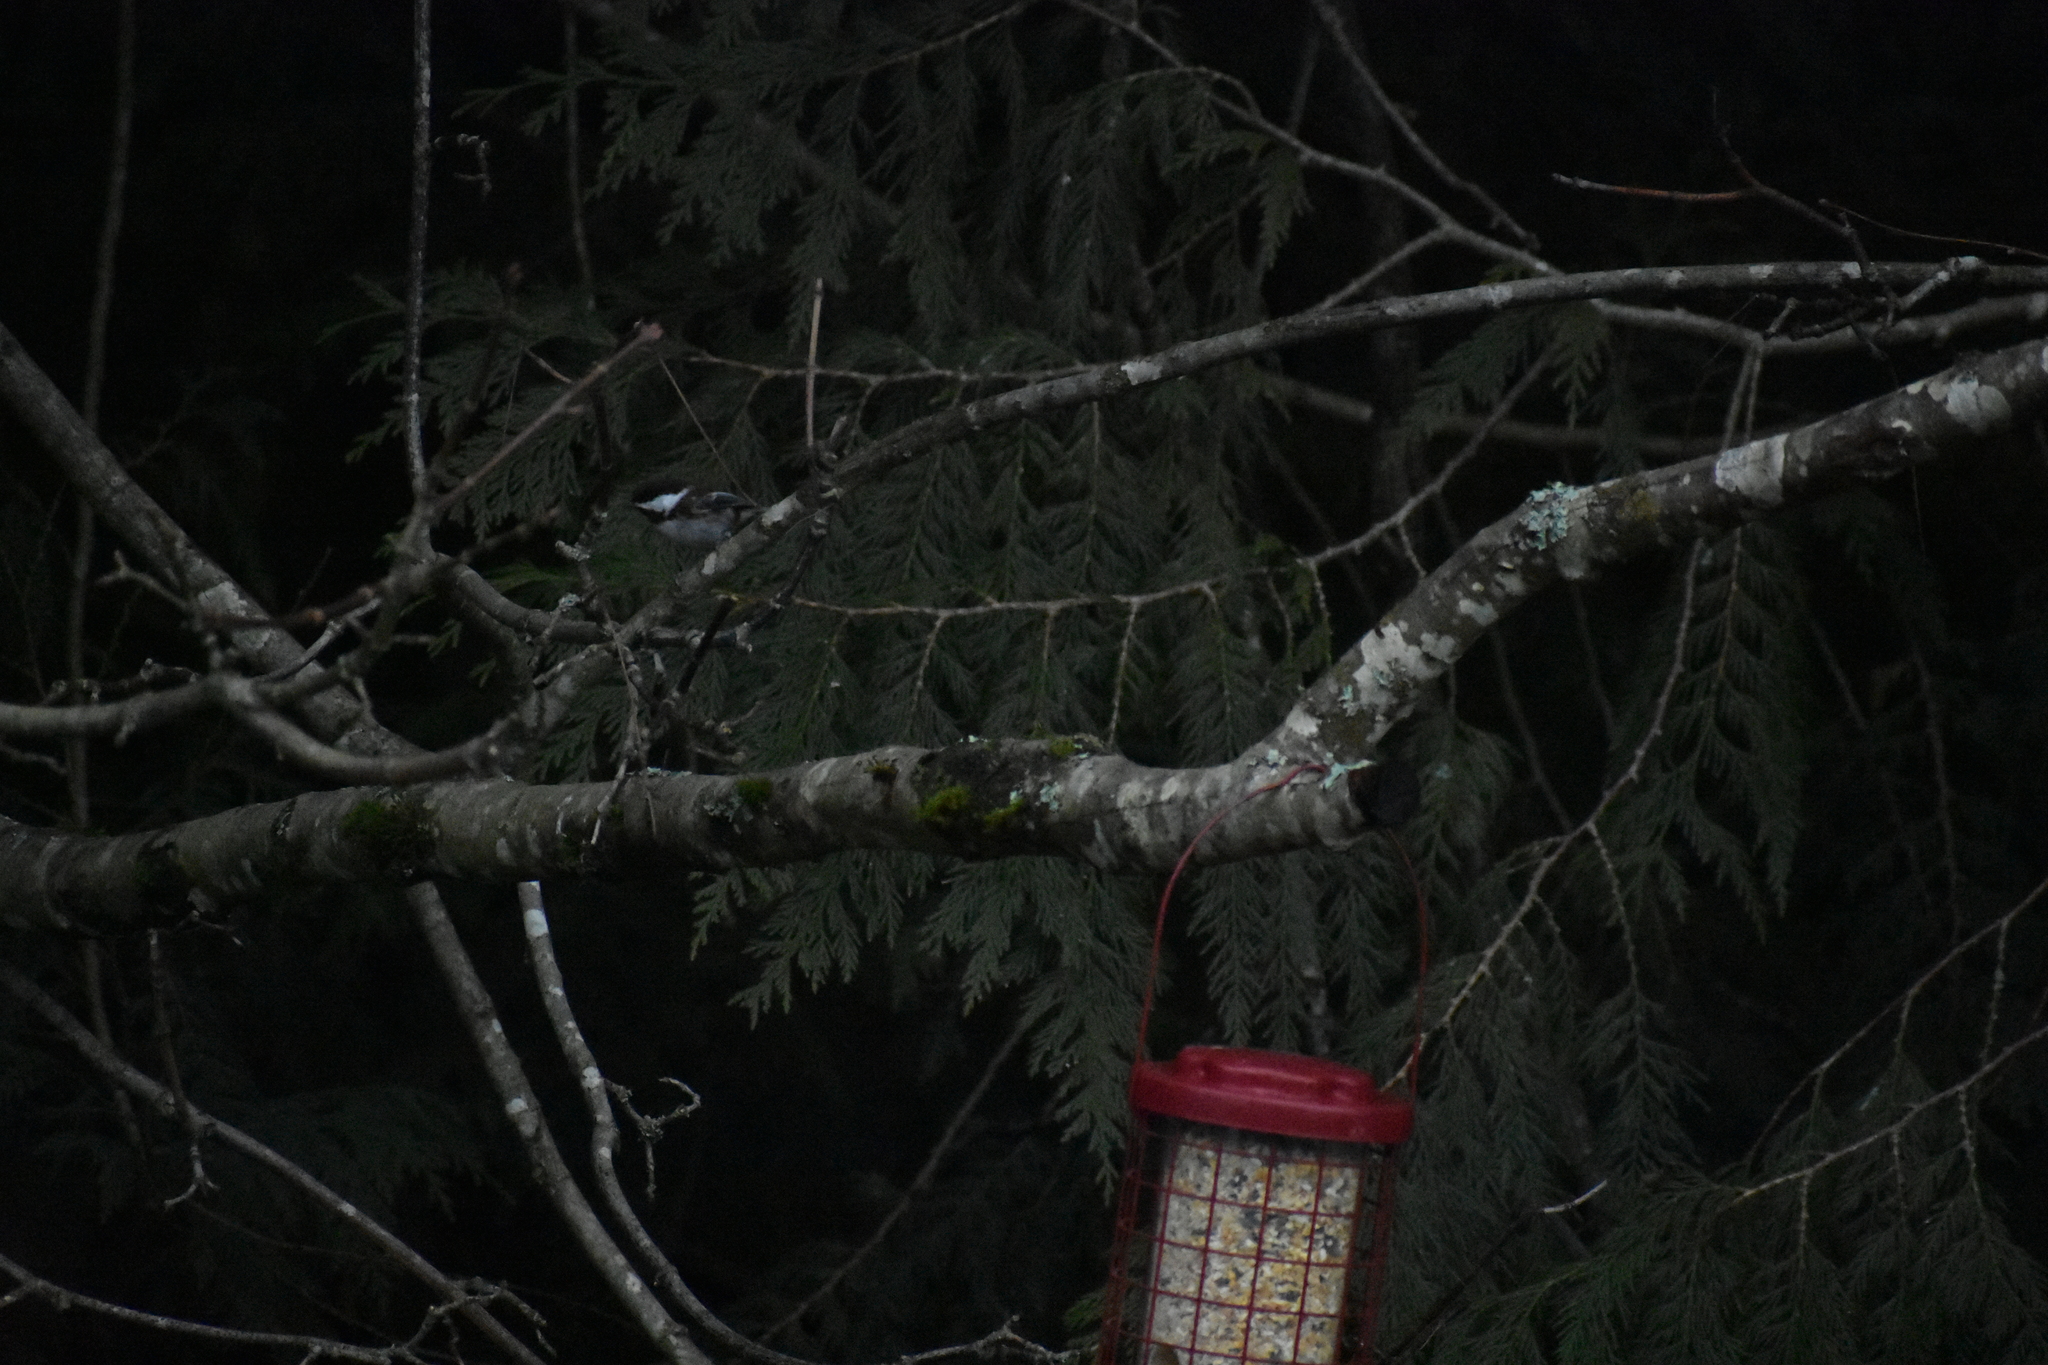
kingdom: Animalia
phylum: Chordata
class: Aves
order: Passeriformes
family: Paridae
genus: Poecile
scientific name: Poecile rufescens
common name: Chestnut-backed chickadee
